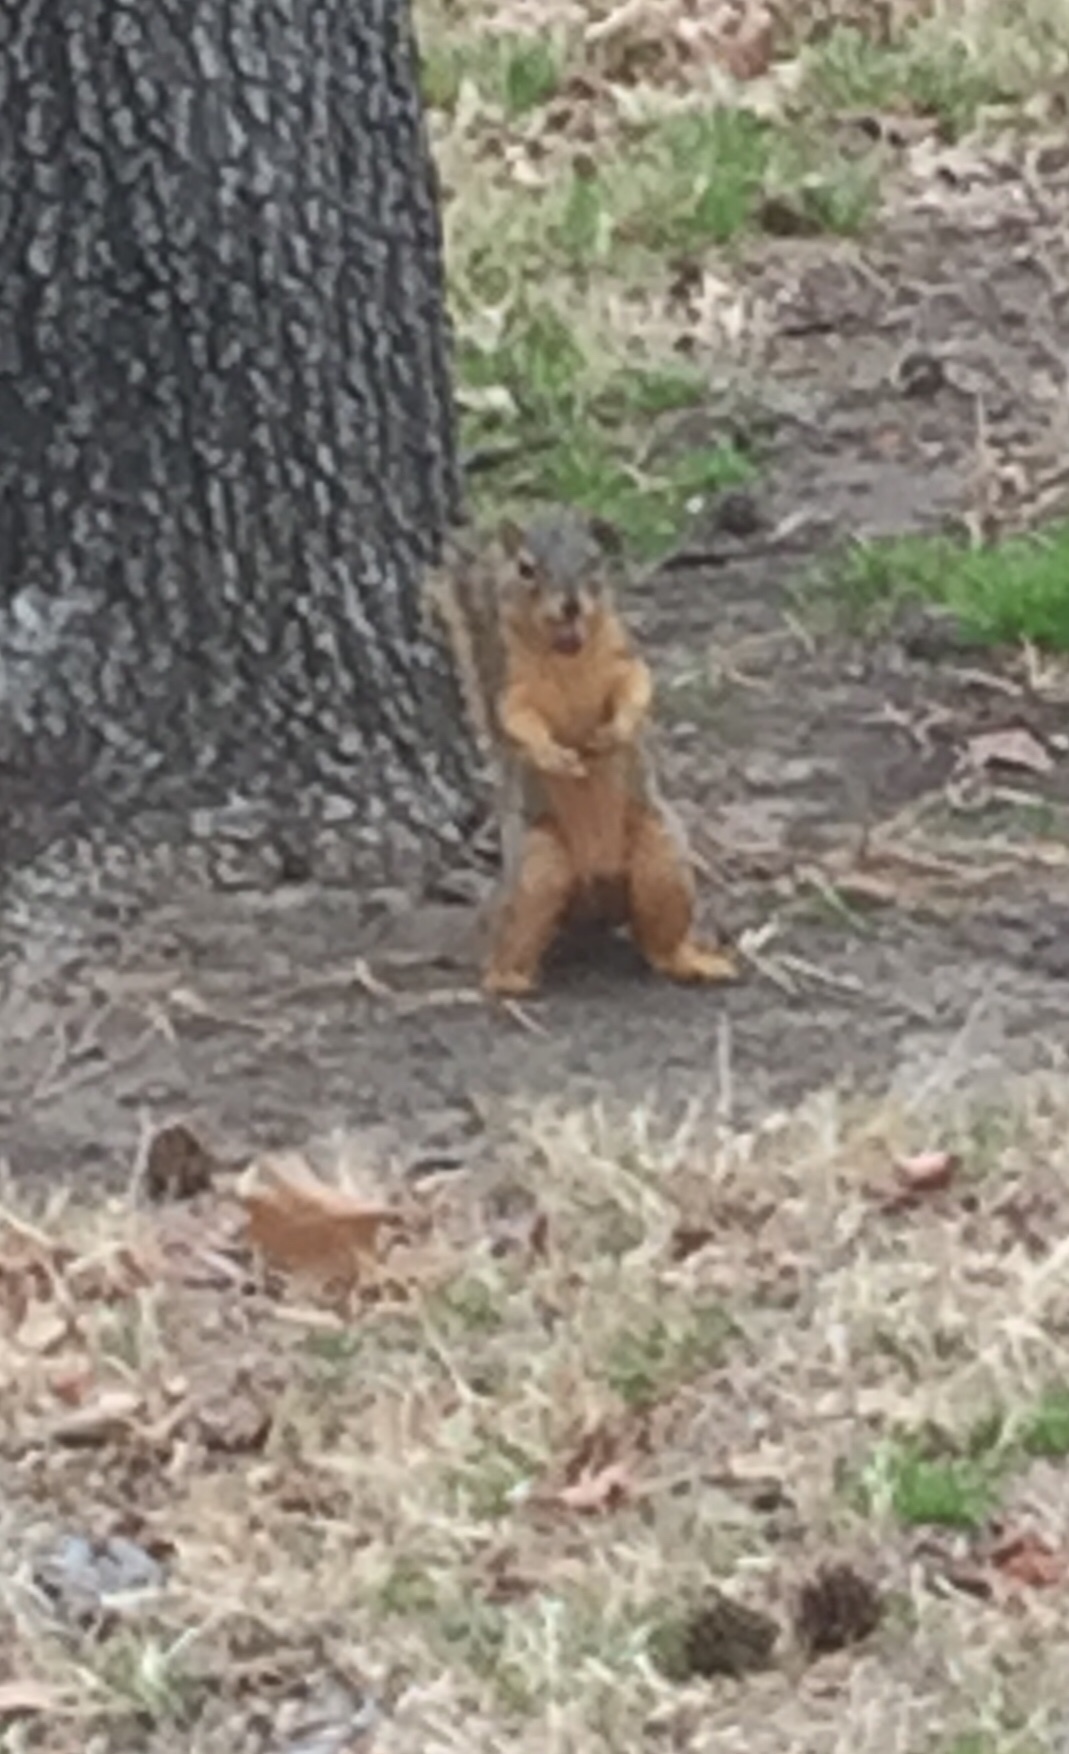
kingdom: Animalia
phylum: Chordata
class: Mammalia
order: Rodentia
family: Sciuridae
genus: Sciurus
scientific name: Sciurus niger
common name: Fox squirrel
